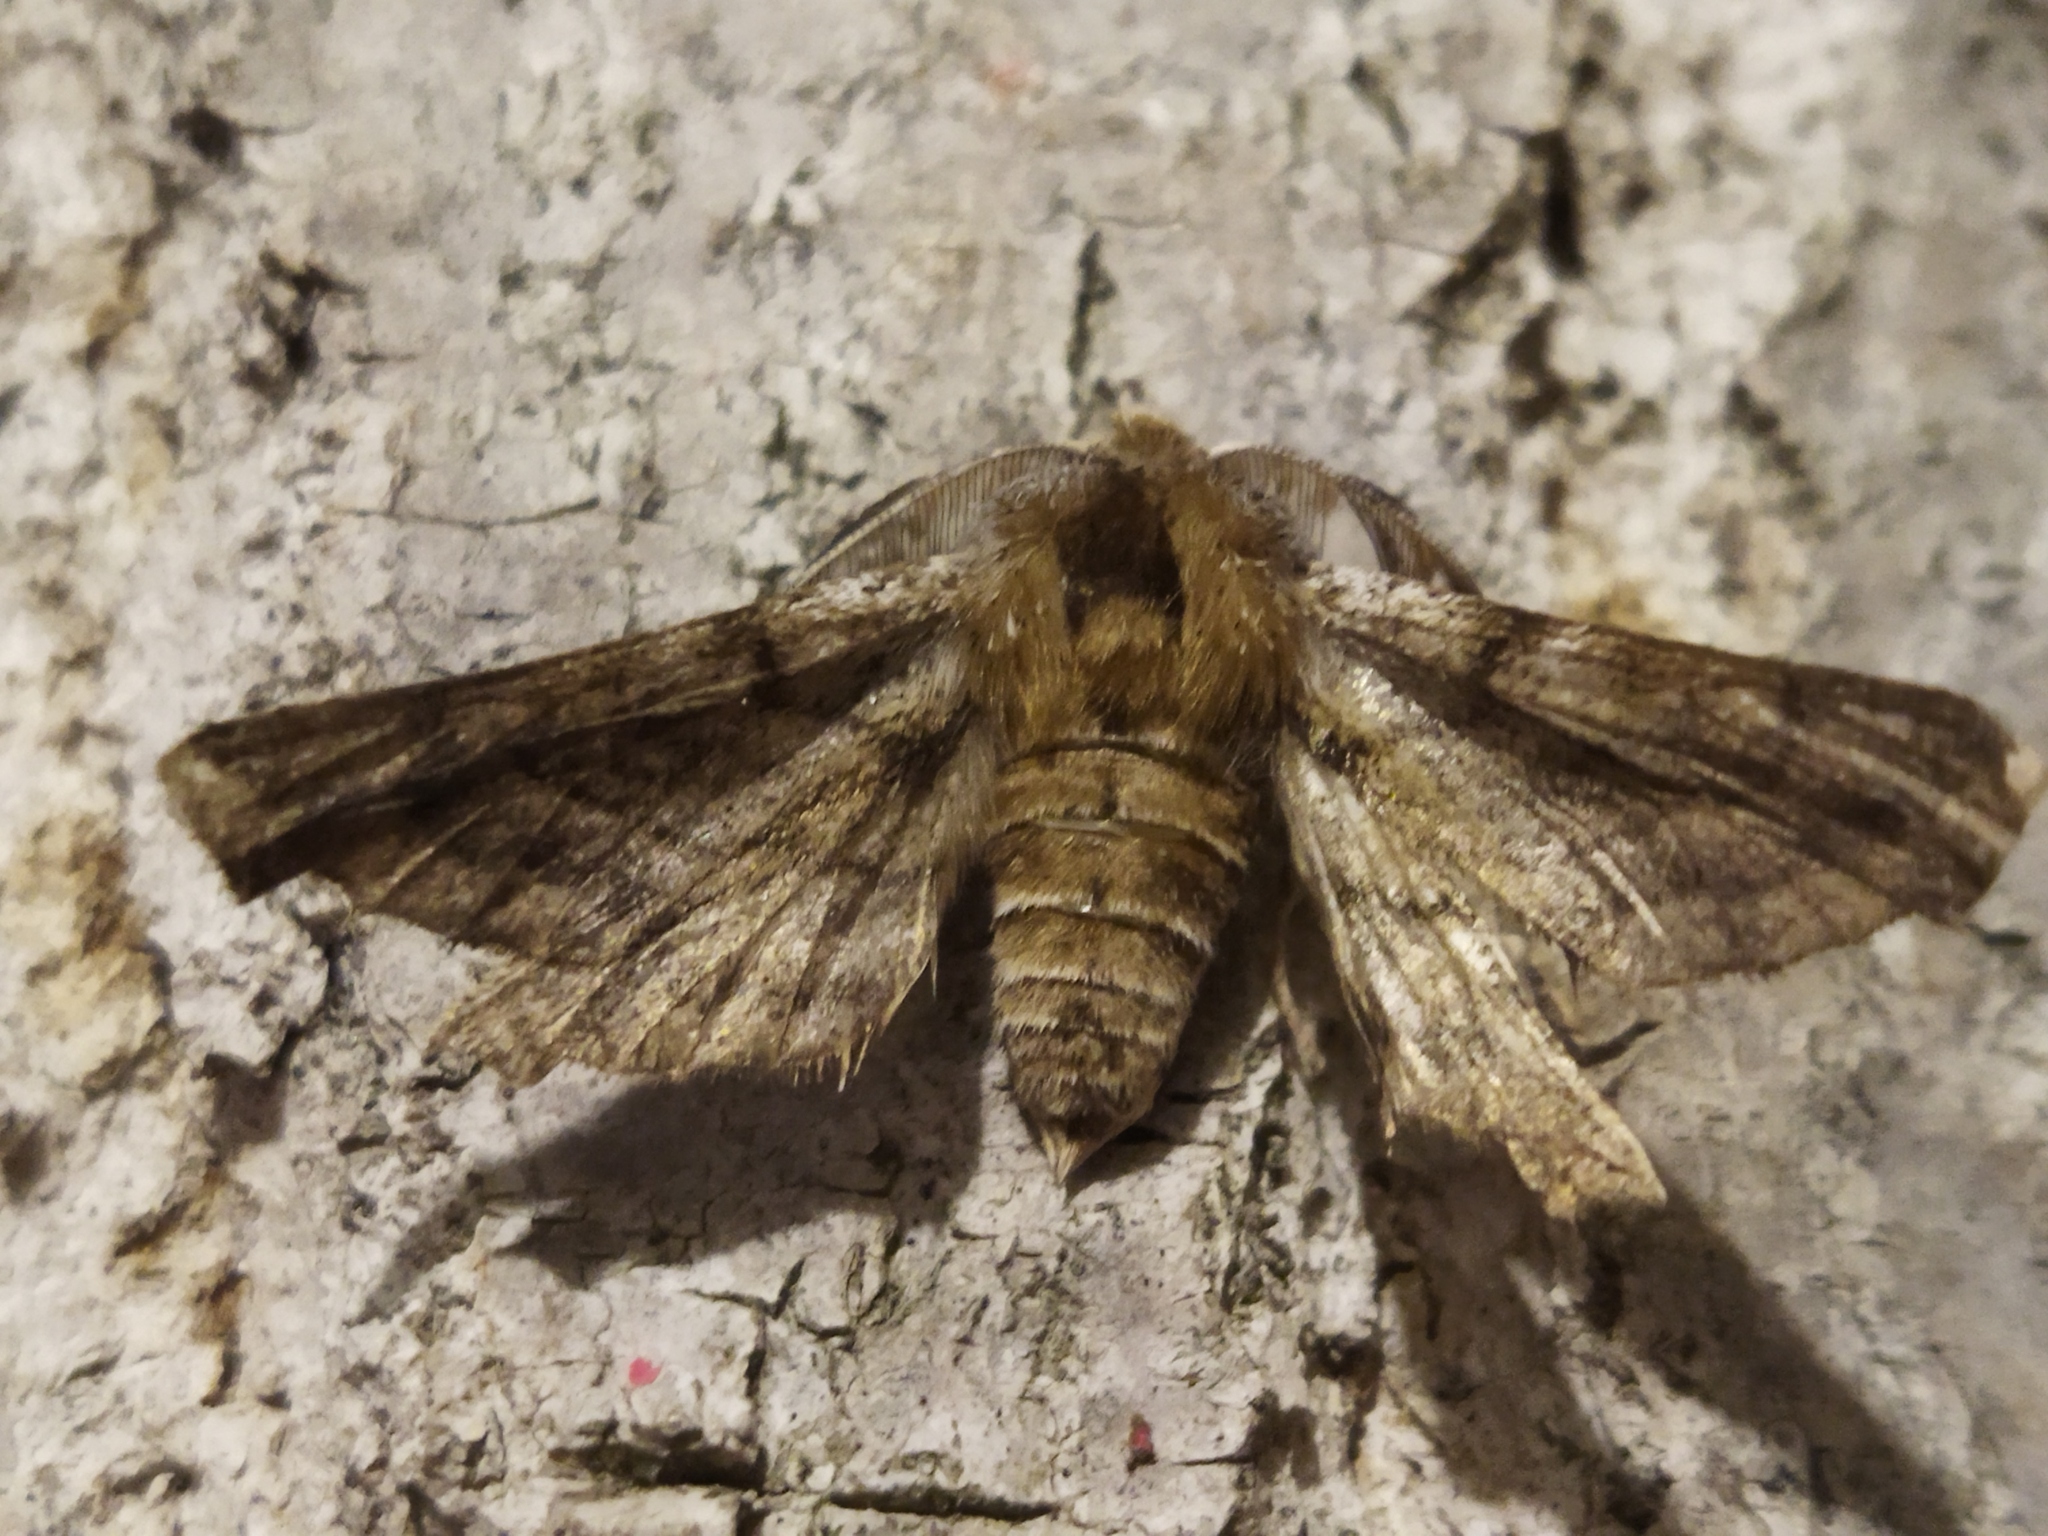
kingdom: Animalia
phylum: Arthropoda
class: Insecta
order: Lepidoptera
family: Geometridae
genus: Apochima
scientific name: Apochima flabellaria
